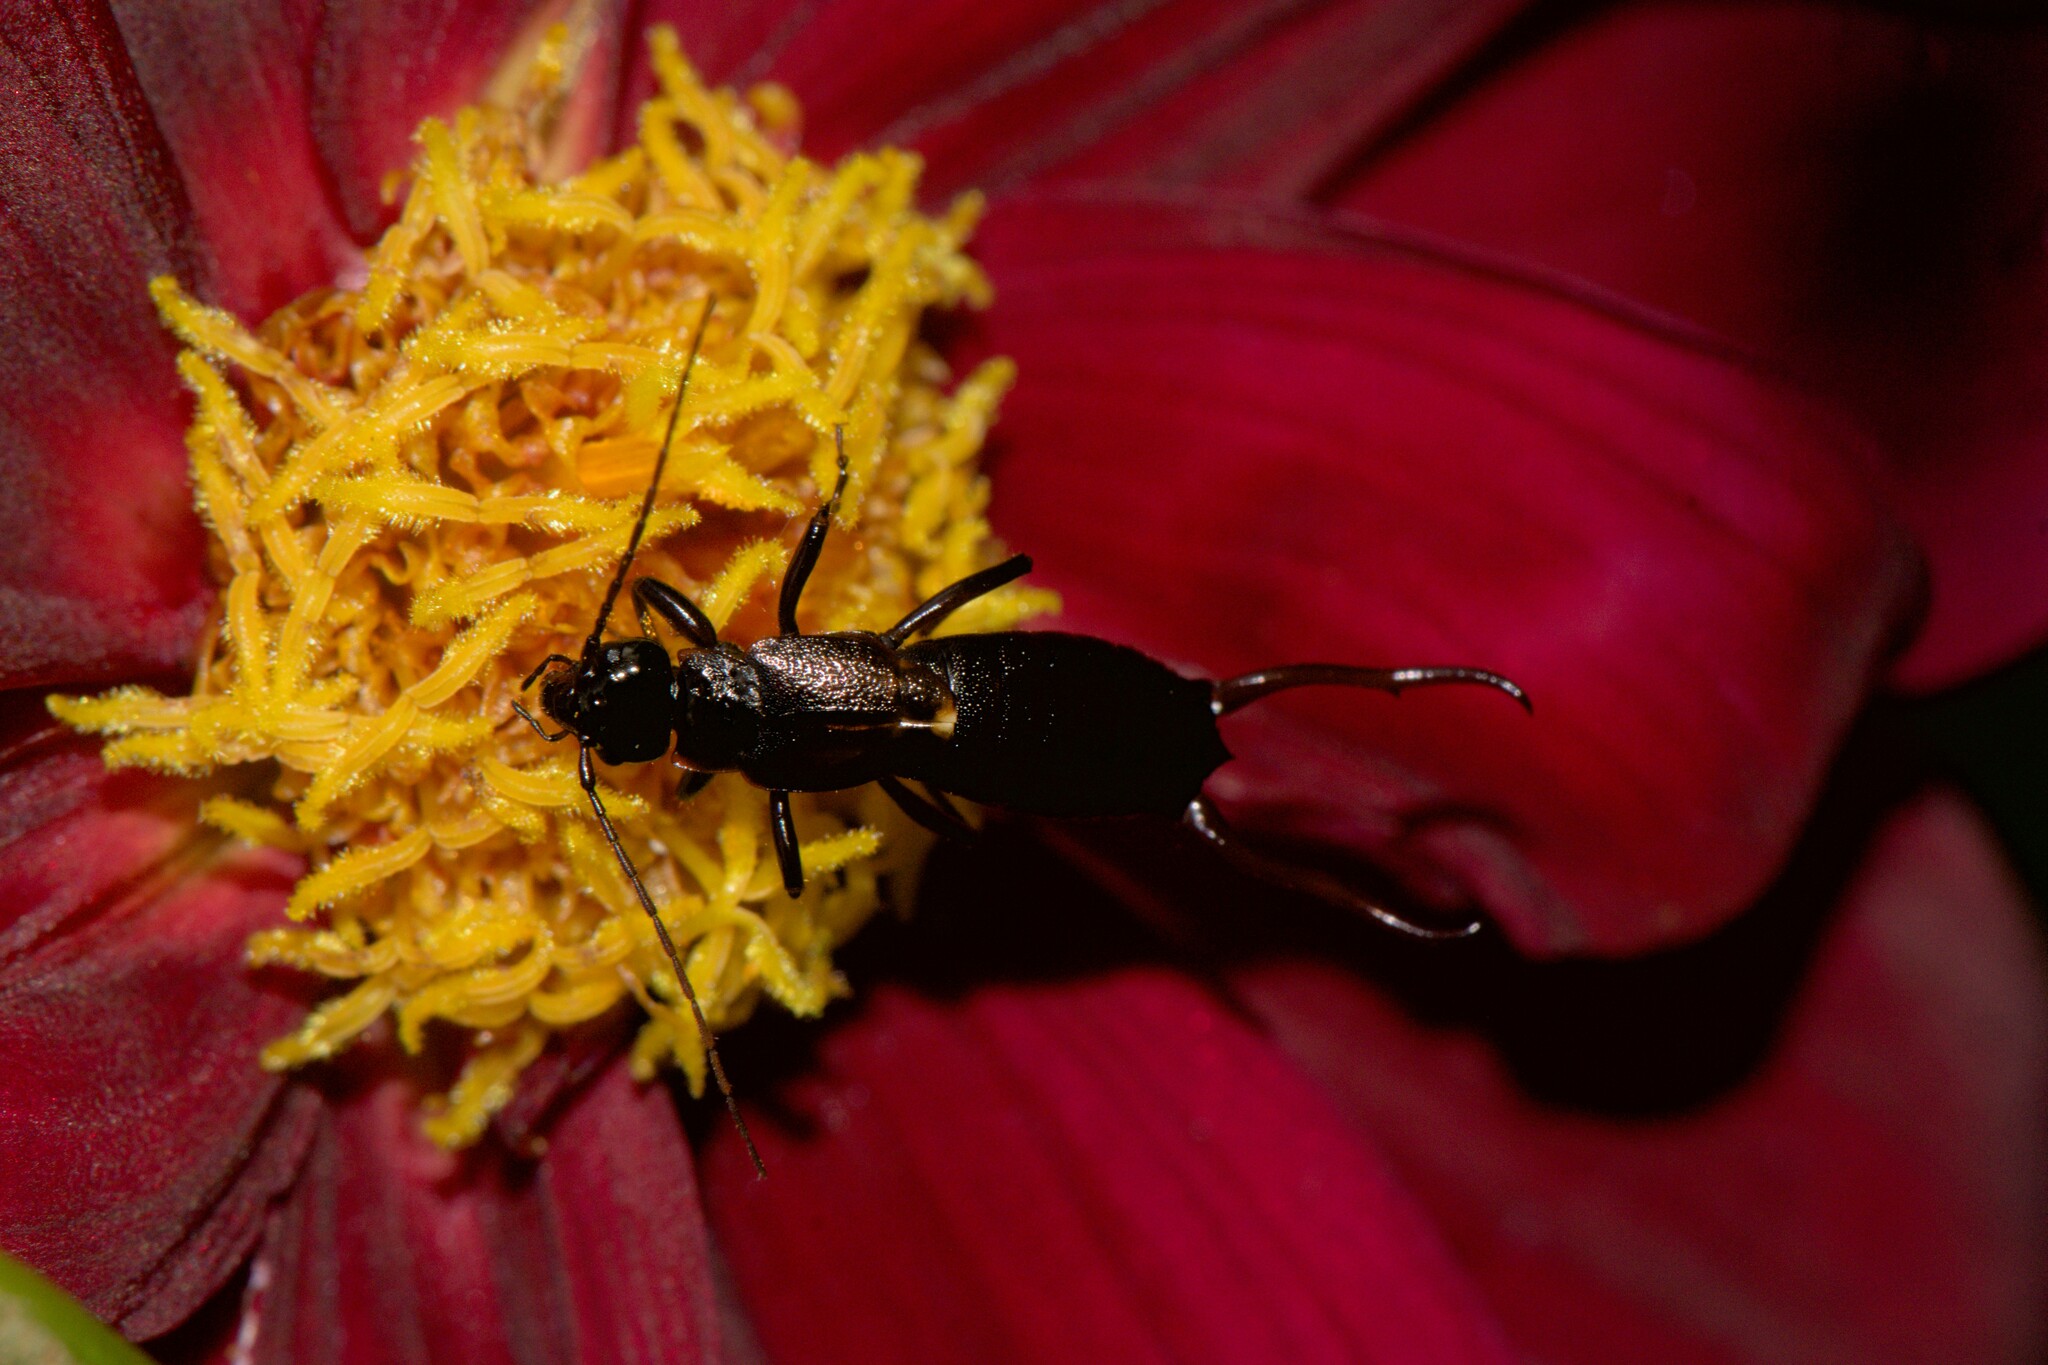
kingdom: Animalia
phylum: Arthropoda
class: Insecta
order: Dermaptera
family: Forficulidae
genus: Allodahlia
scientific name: Allodahlia macropyga
